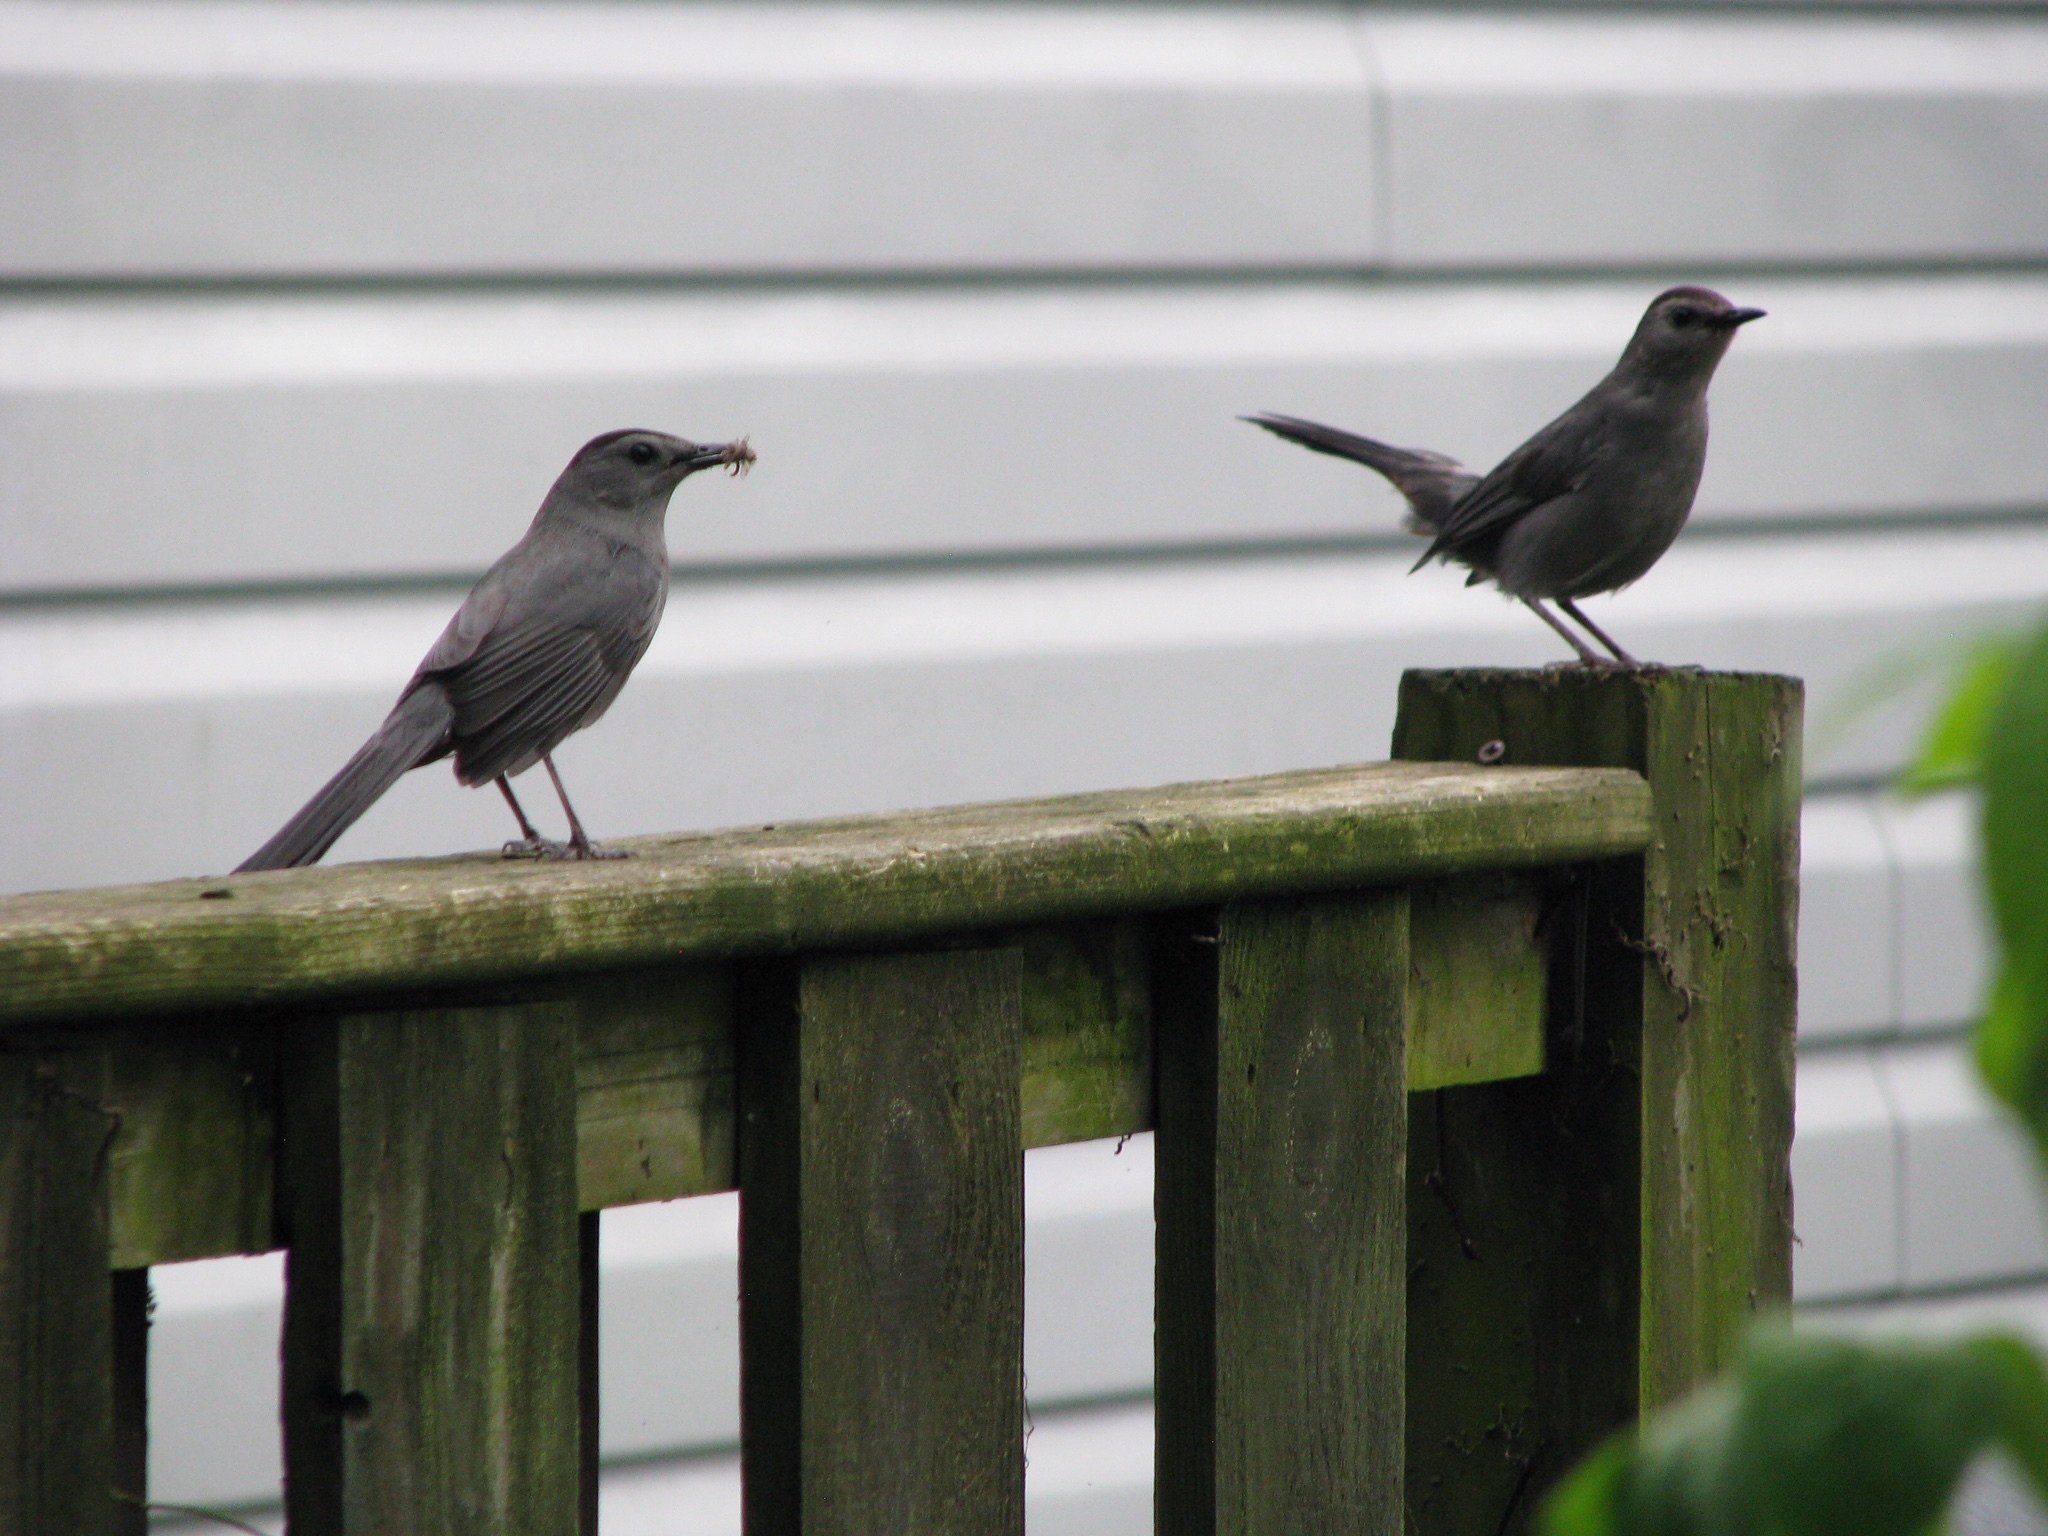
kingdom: Animalia
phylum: Chordata
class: Aves
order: Passeriformes
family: Mimidae
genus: Dumetella
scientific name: Dumetella carolinensis
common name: Gray catbird
